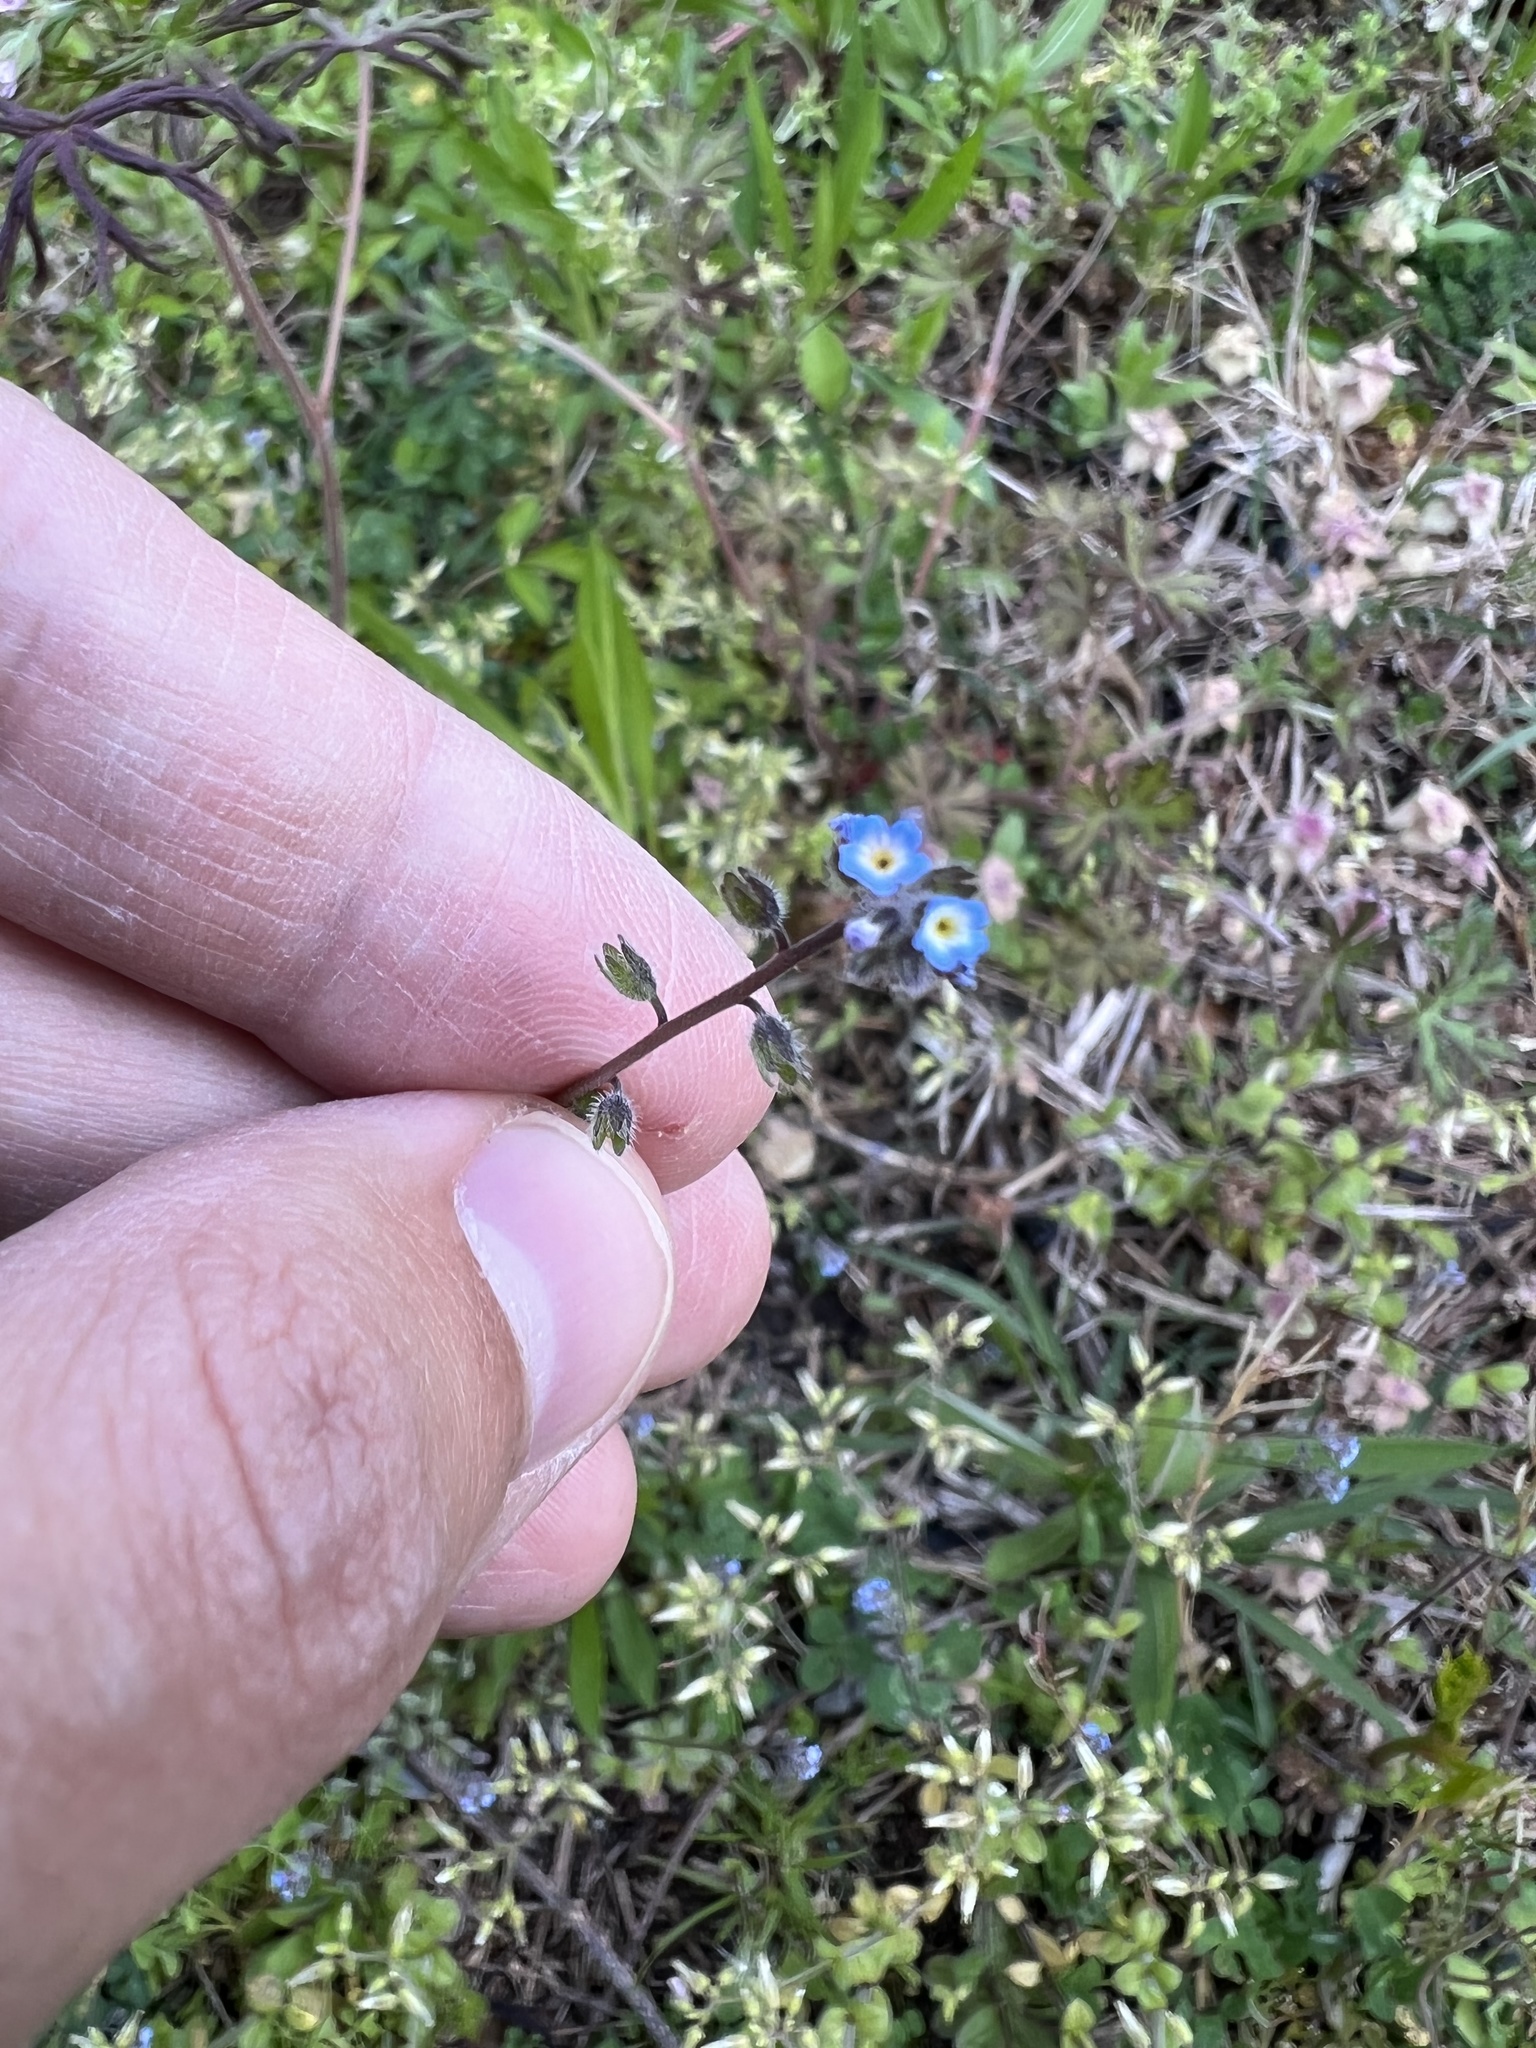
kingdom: Plantae
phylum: Tracheophyta
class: Magnoliopsida
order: Boraginales
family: Boraginaceae
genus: Myosotis
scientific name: Myosotis ramosissima
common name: Early forget-me-not
